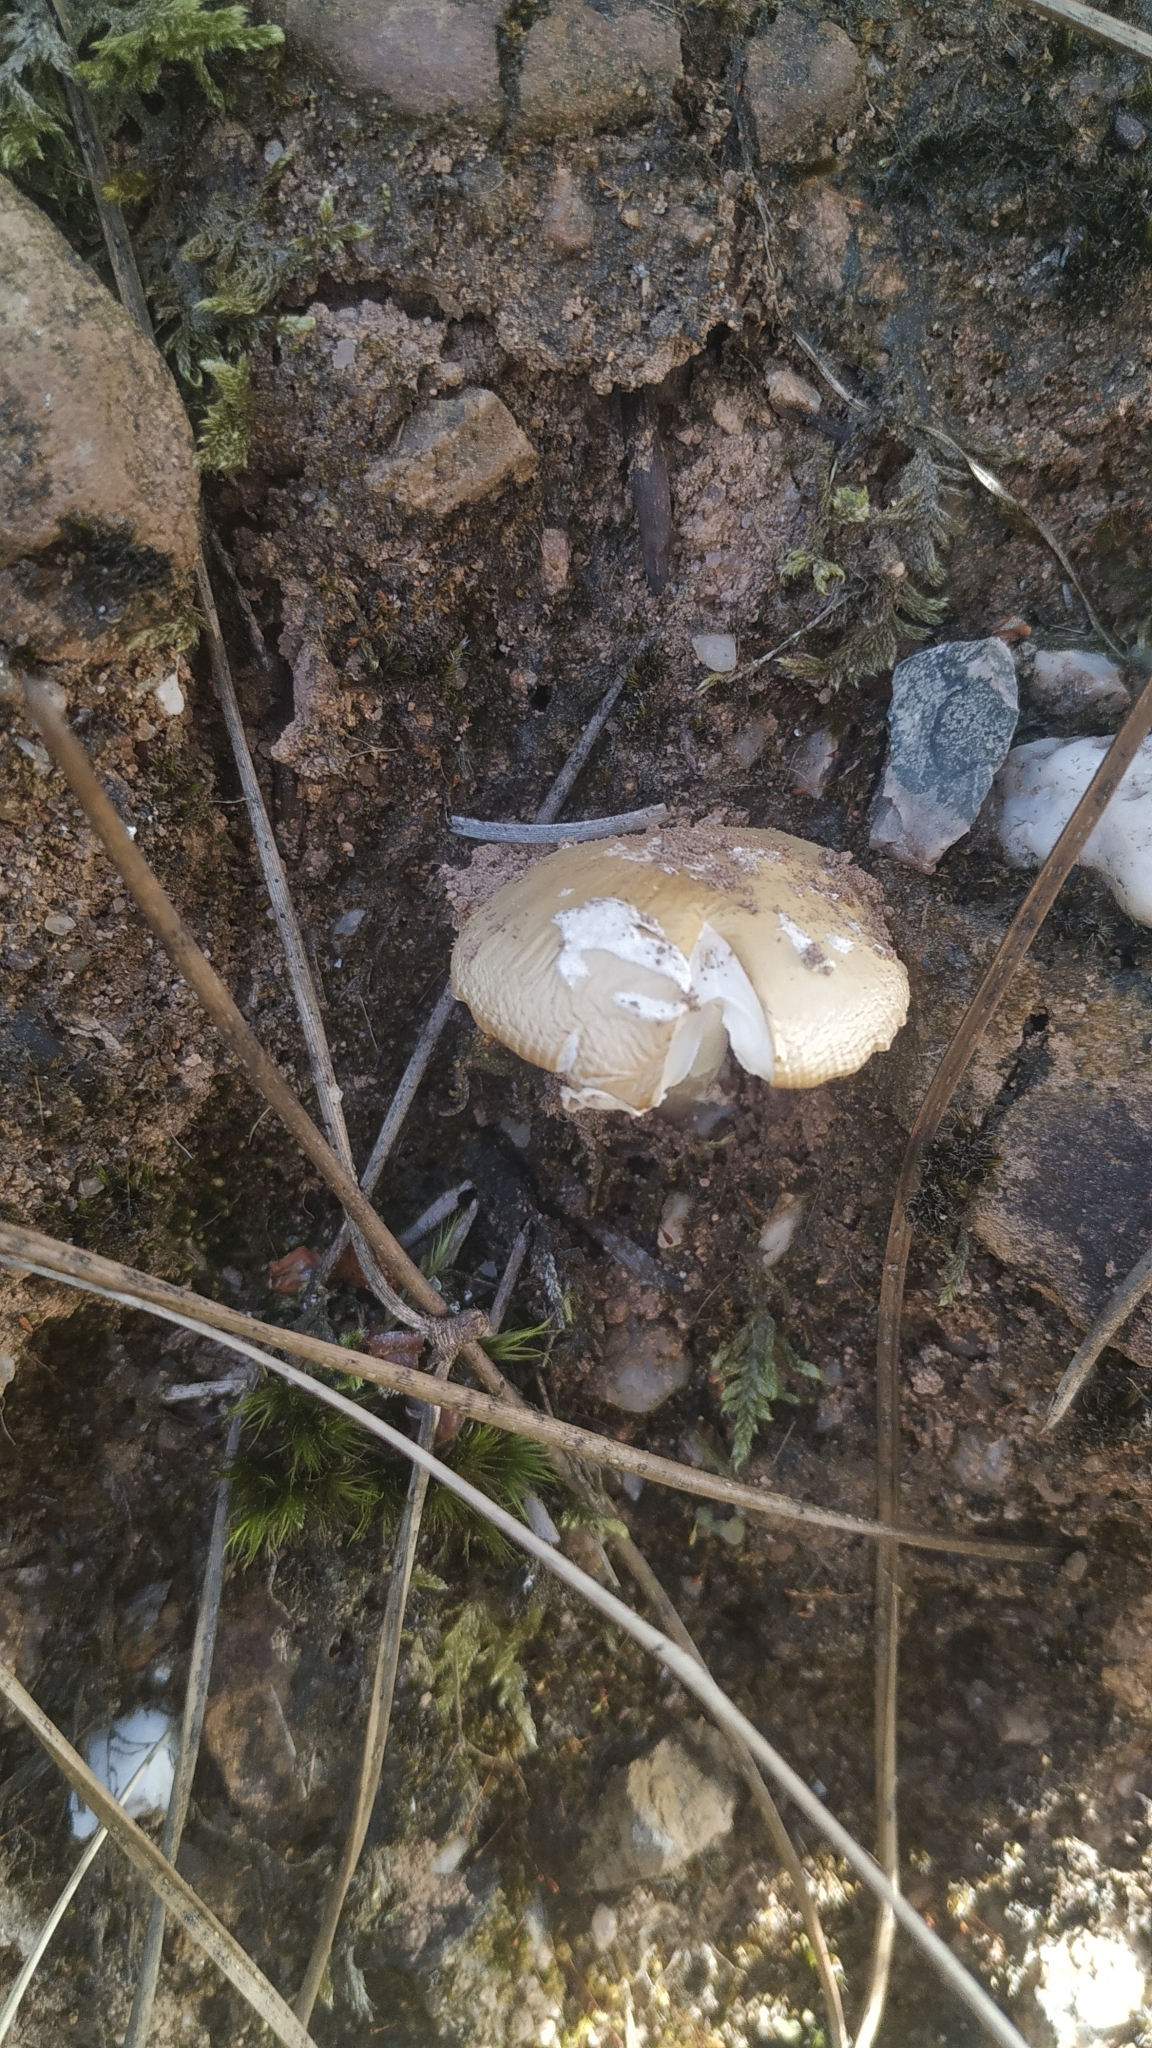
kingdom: Fungi
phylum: Basidiomycota
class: Agaricomycetes
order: Agaricales
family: Amanitaceae
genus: Amanita
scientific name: Amanita gemmata
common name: Jewelled amanita
